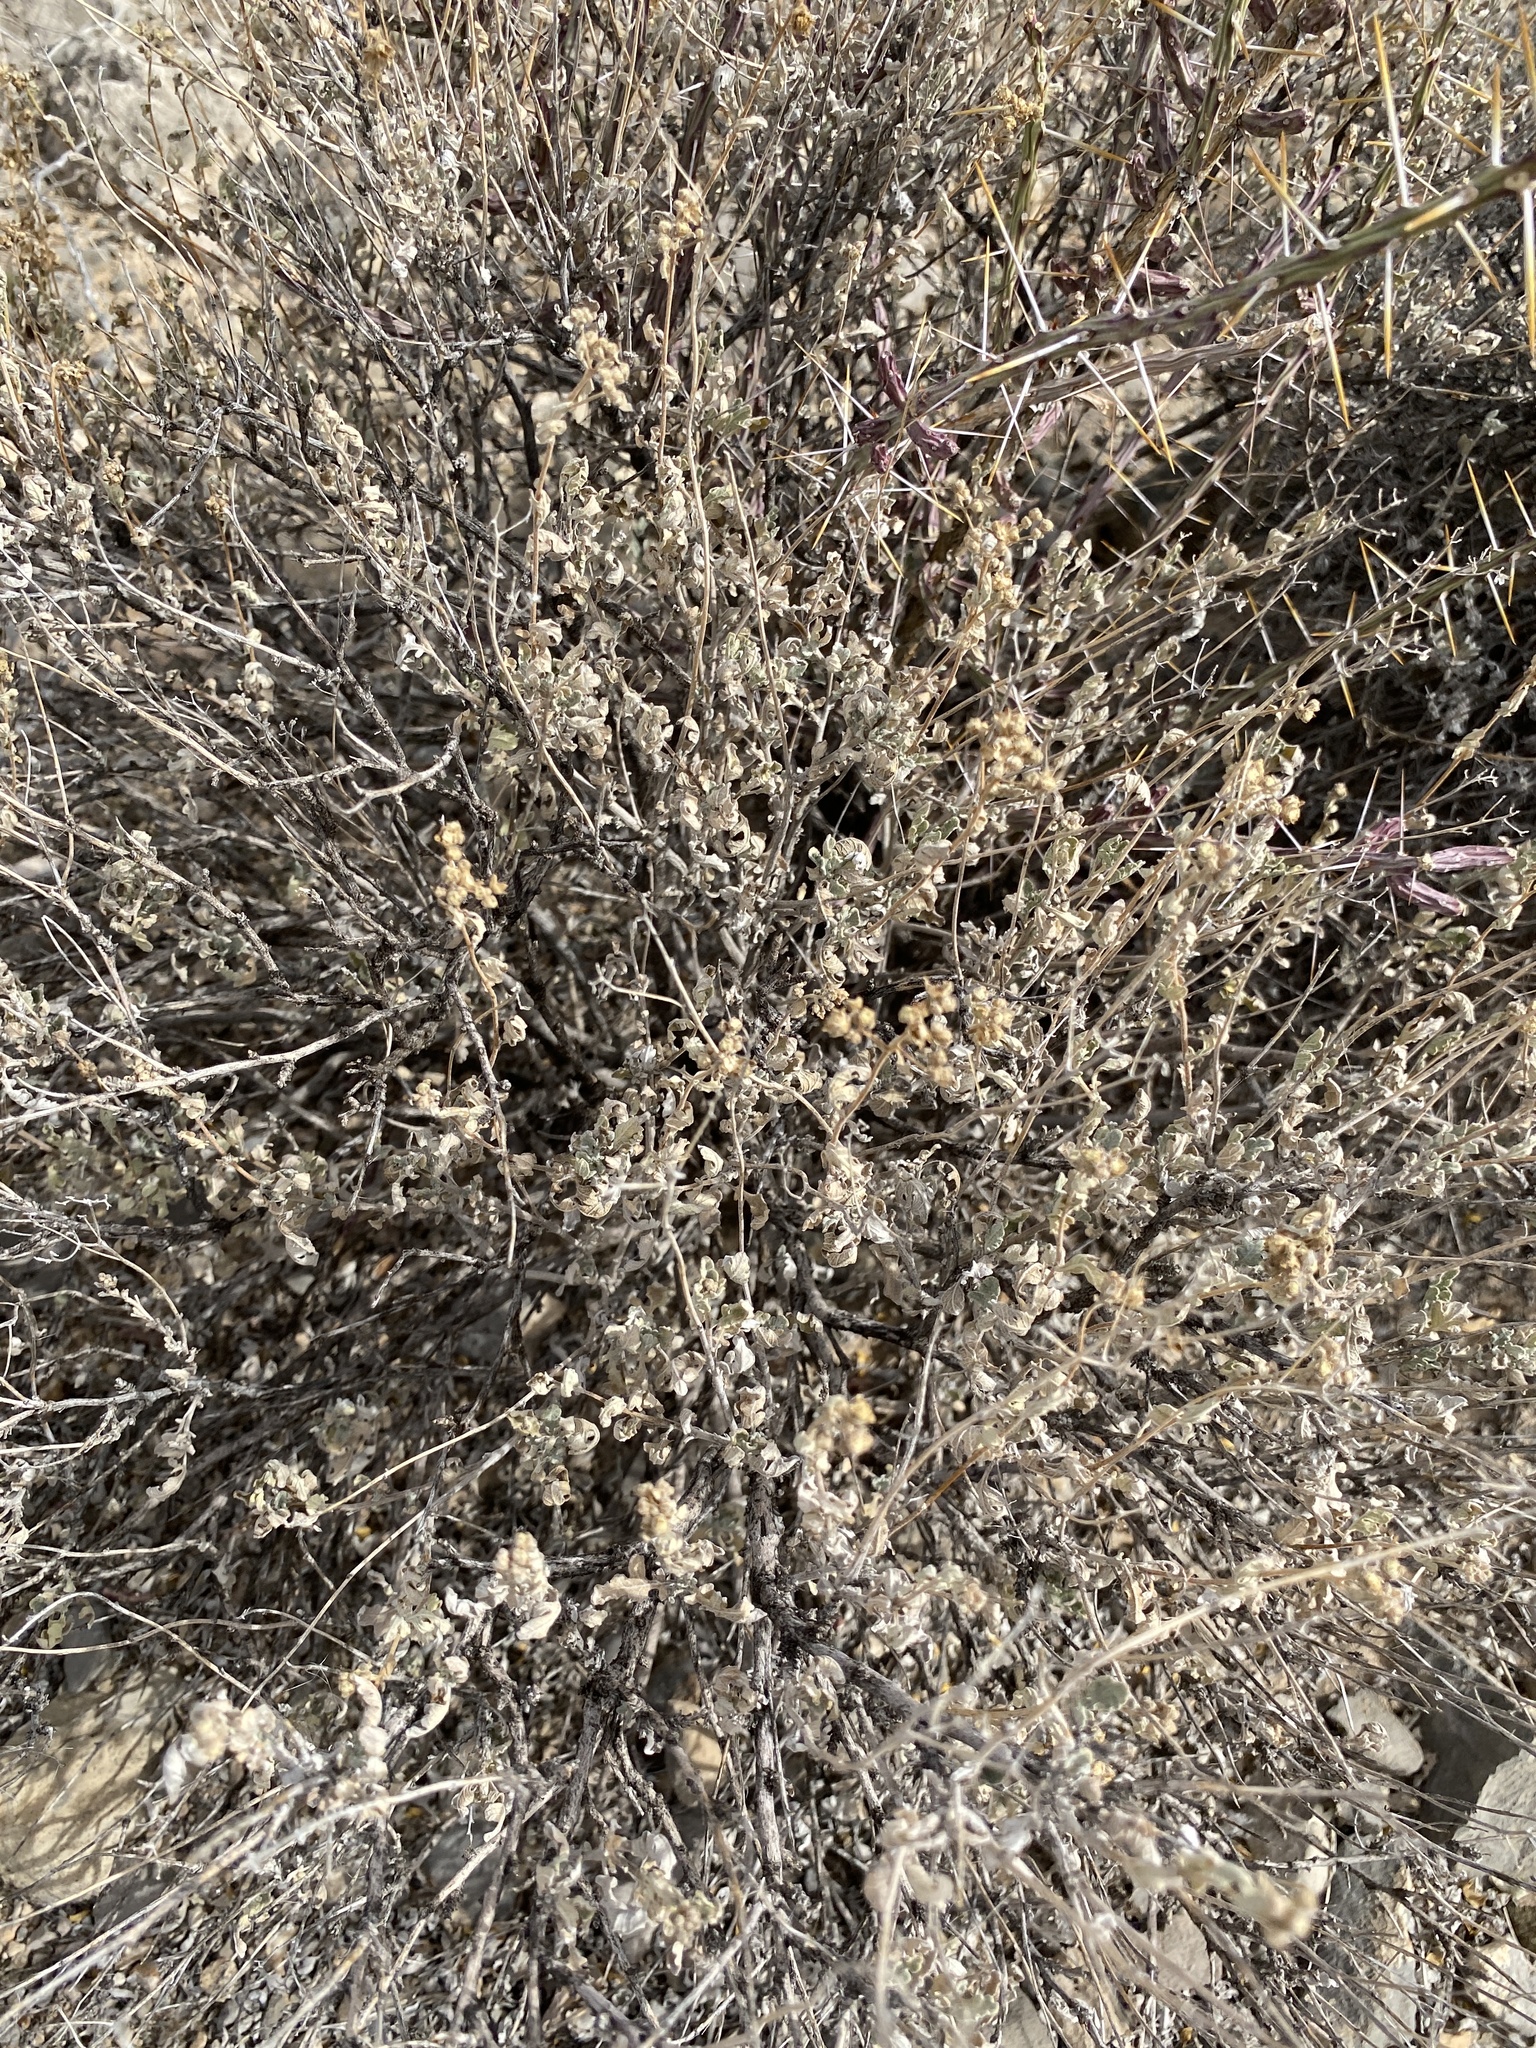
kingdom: Plantae
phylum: Tracheophyta
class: Magnoliopsida
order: Asterales
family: Asteraceae
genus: Parthenium
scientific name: Parthenium incanum
